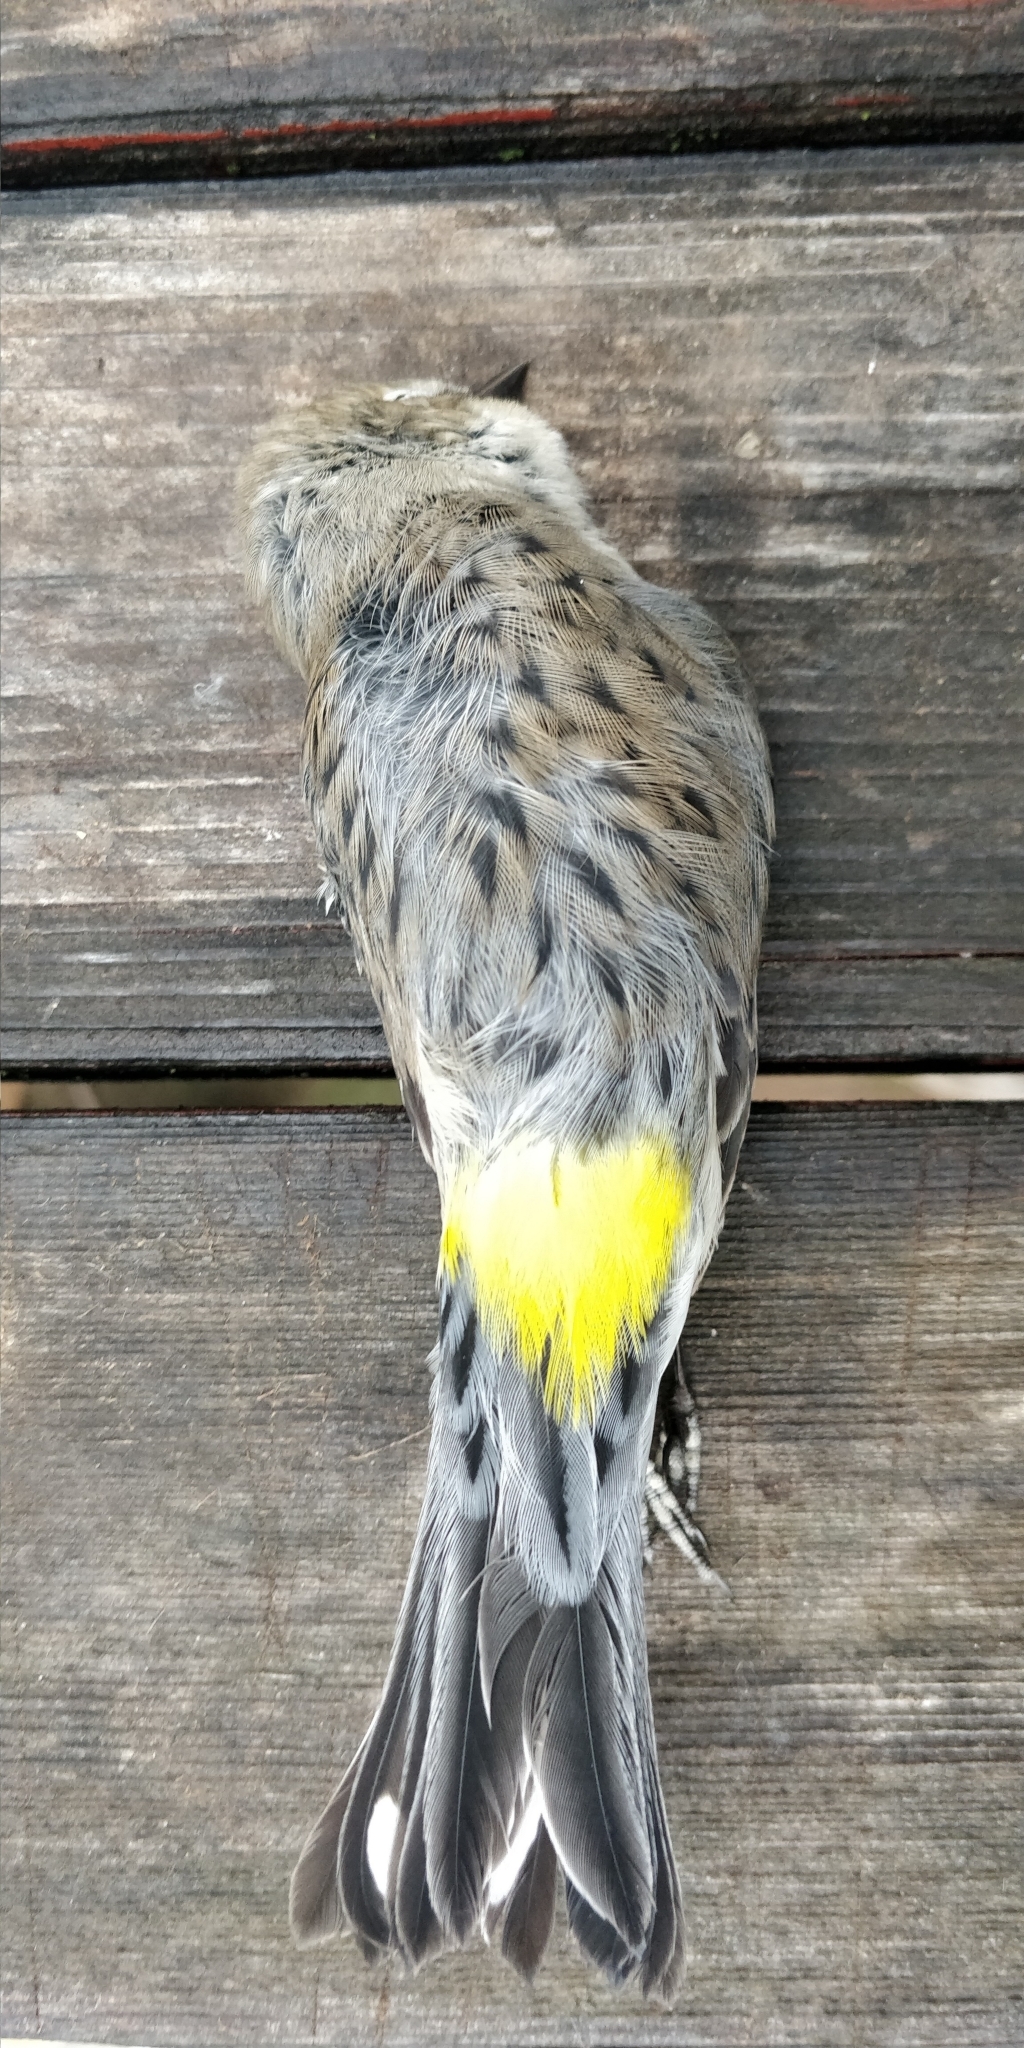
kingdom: Animalia
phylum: Chordata
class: Aves
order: Passeriformes
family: Parulidae
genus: Setophaga
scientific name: Setophaga coronata
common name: Myrtle warbler
